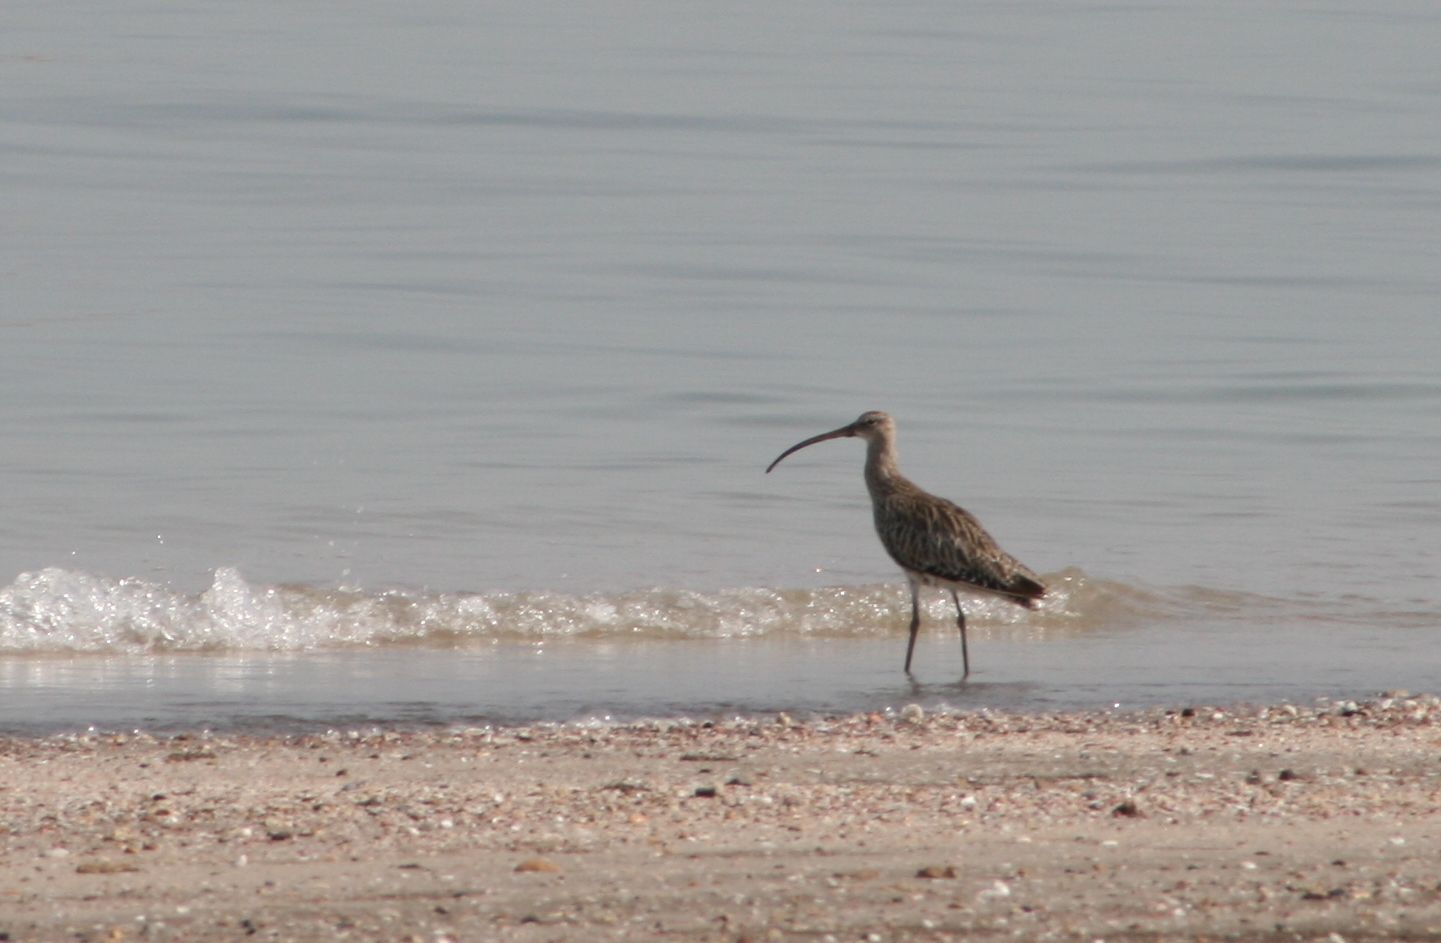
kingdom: Animalia
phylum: Chordata
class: Aves
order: Charadriiformes
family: Scolopacidae
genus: Numenius
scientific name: Numenius arquata
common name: Eurasian curlew
